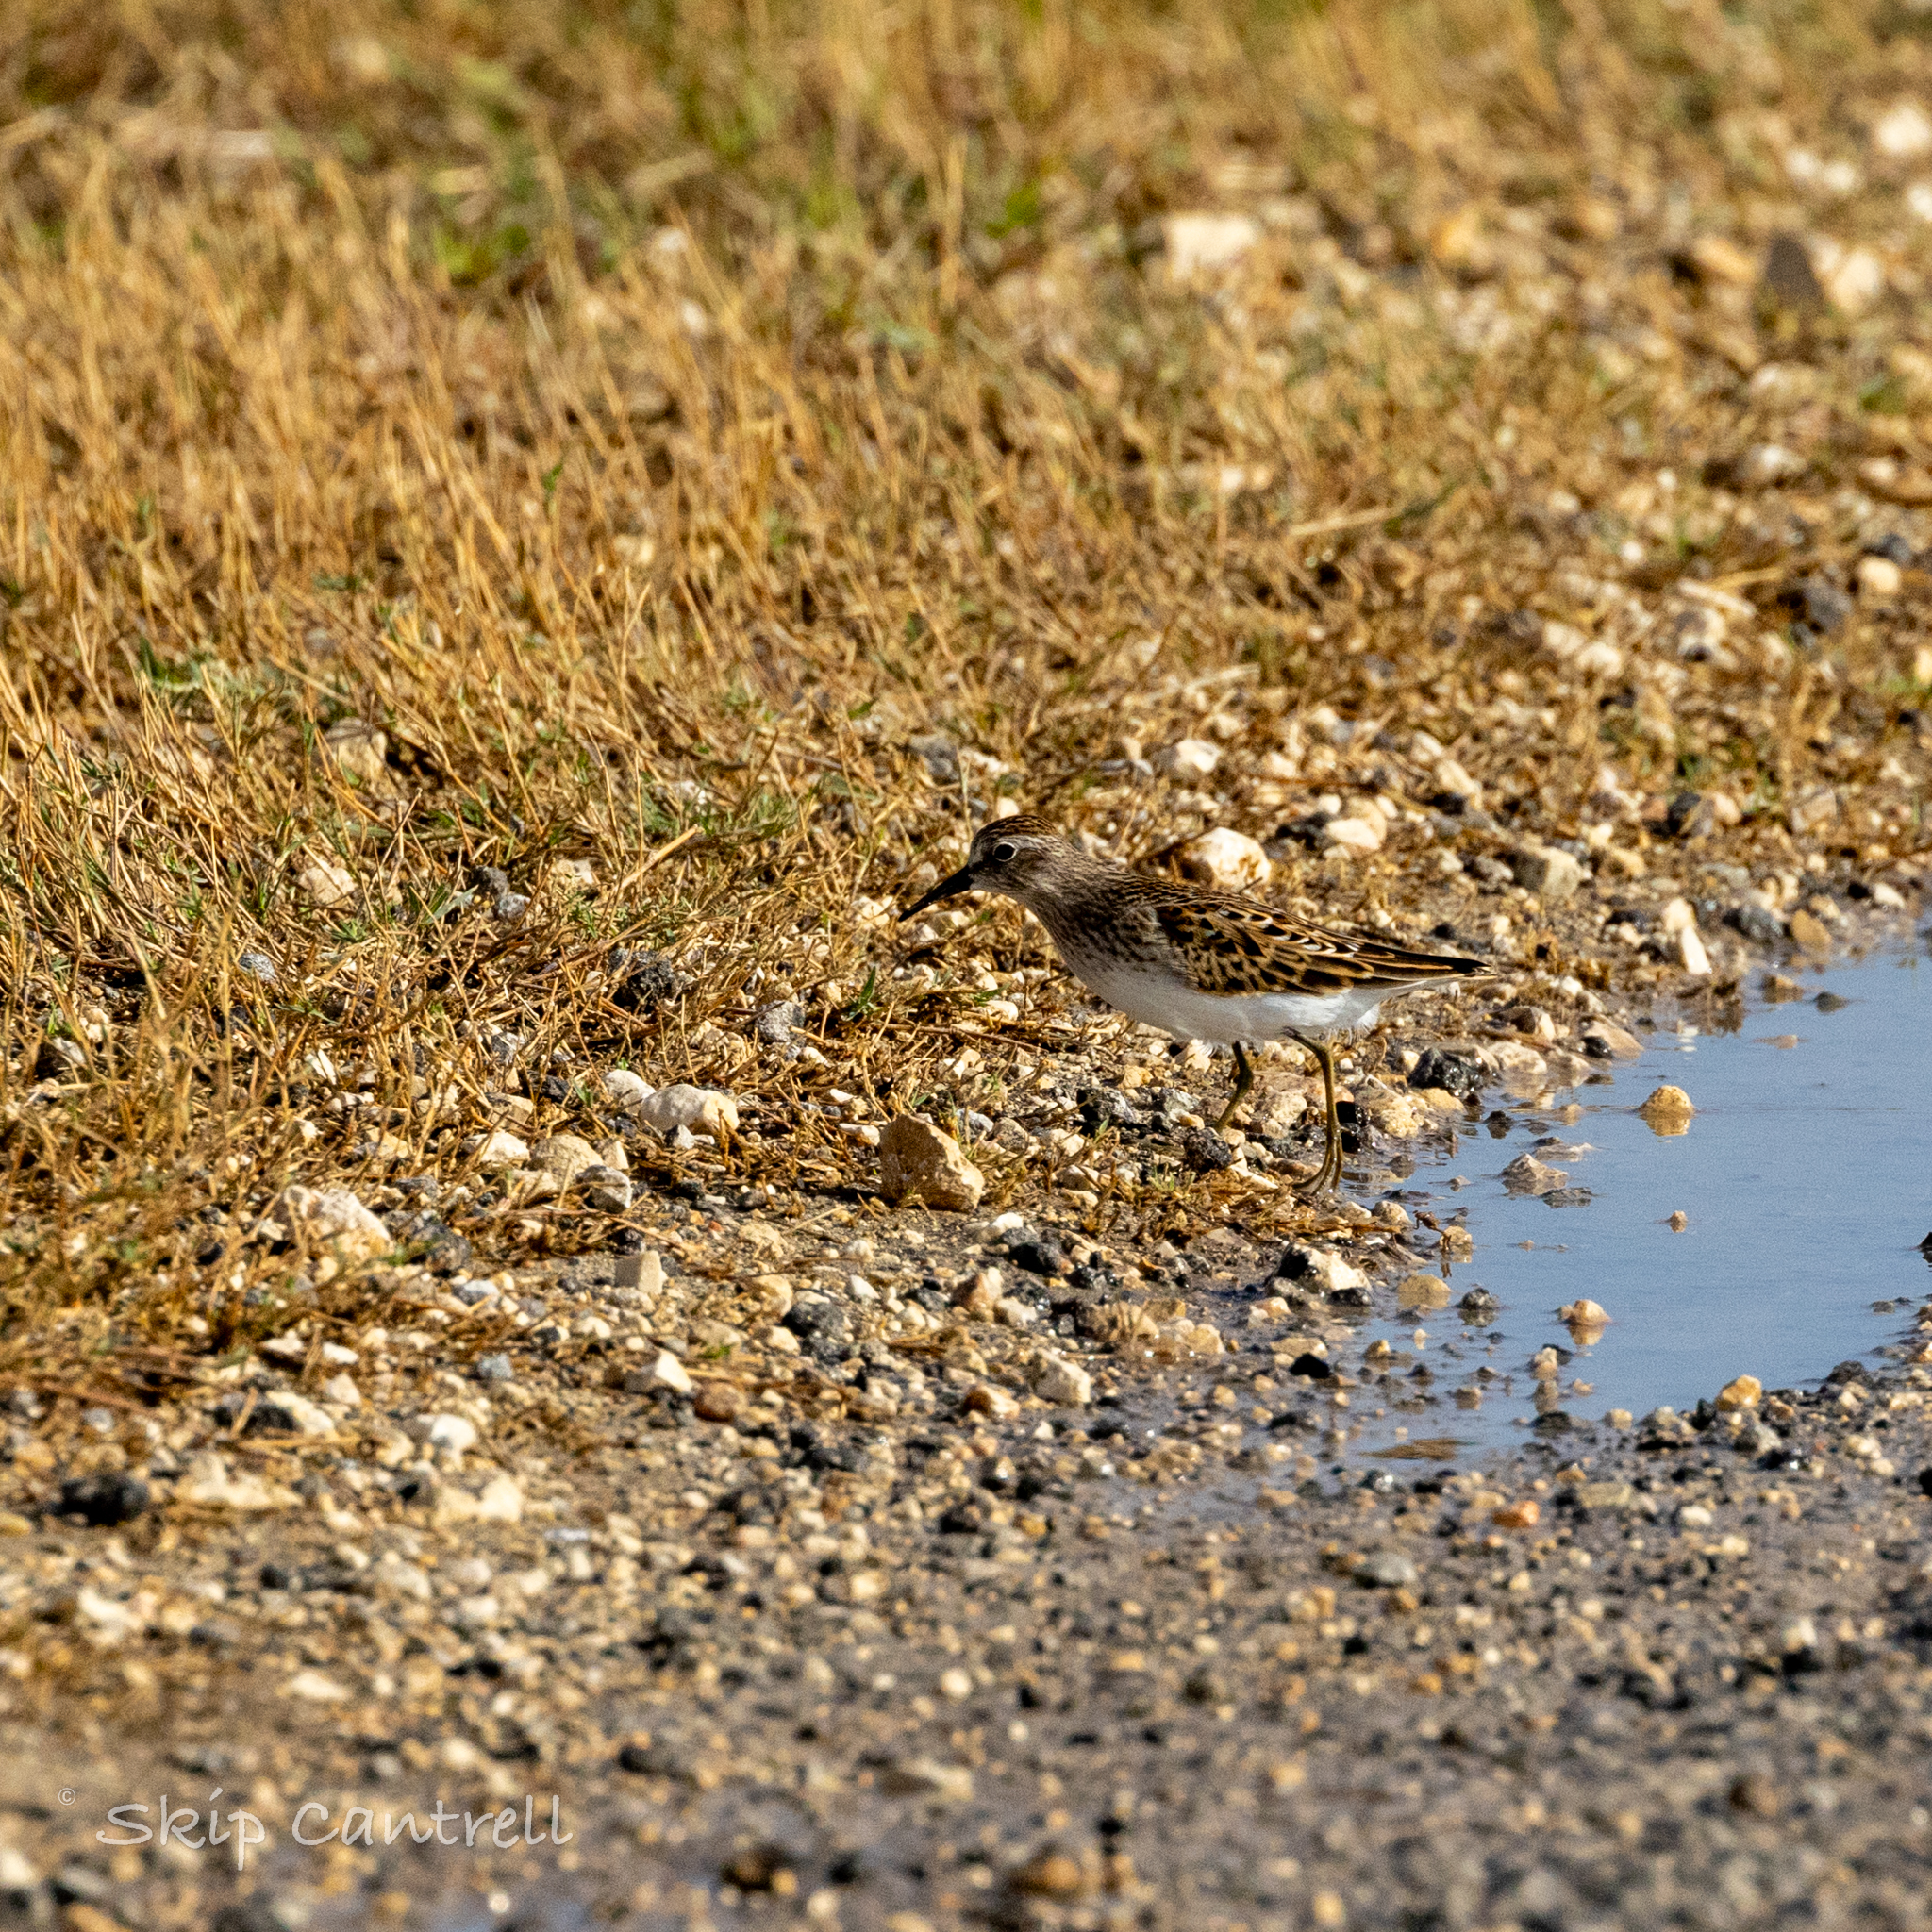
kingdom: Animalia
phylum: Chordata
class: Aves
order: Charadriiformes
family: Scolopacidae
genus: Calidris
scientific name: Calidris minutilla
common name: Least sandpiper
